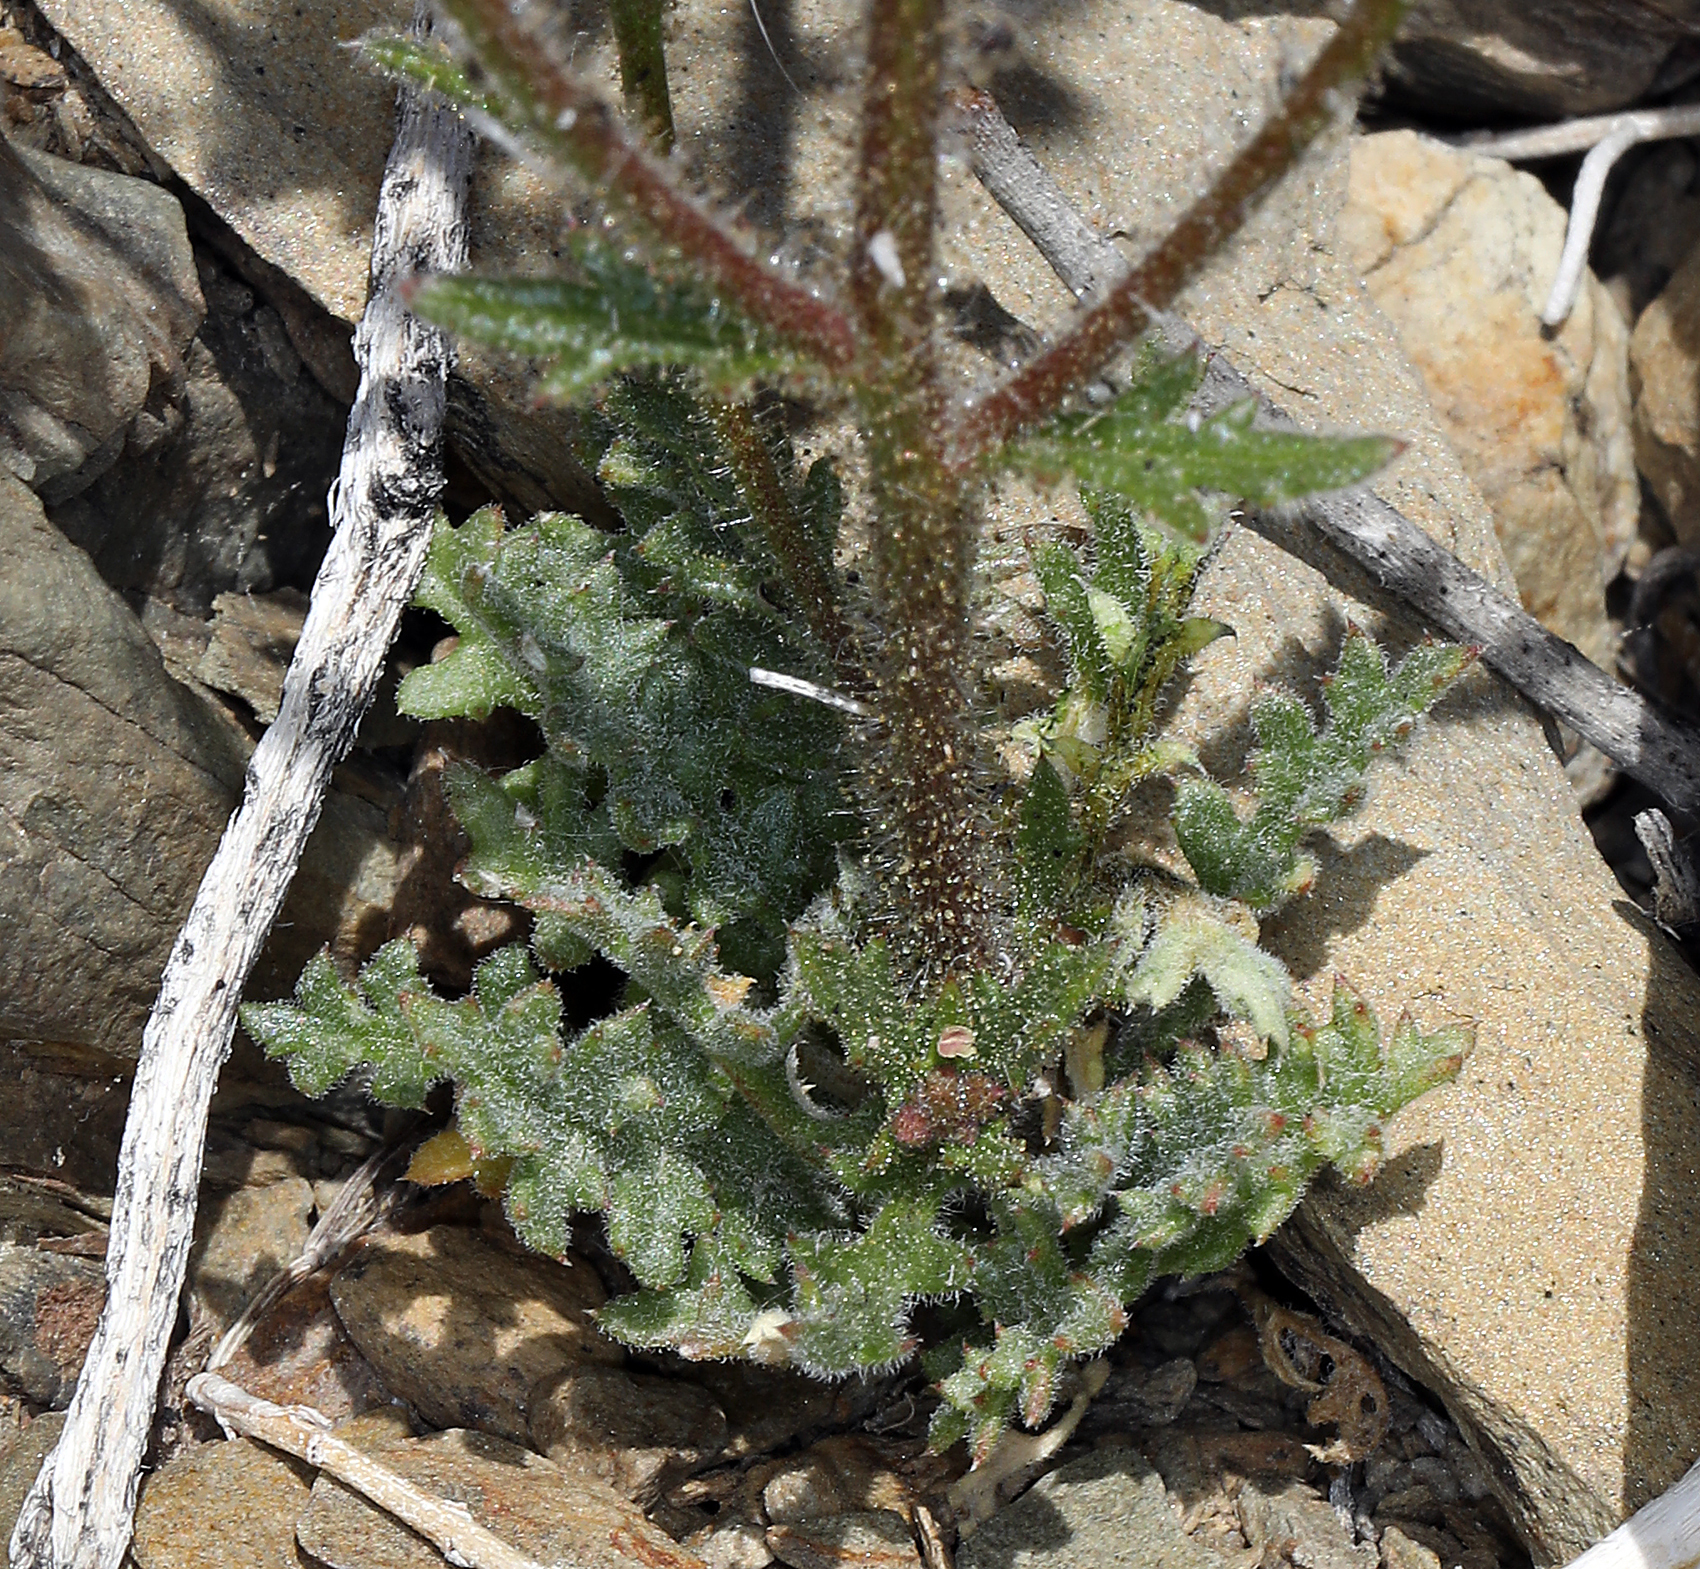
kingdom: Plantae
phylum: Tracheophyta
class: Magnoliopsida
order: Ericales
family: Polemoniaceae
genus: Gilia
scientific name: Gilia stellata
